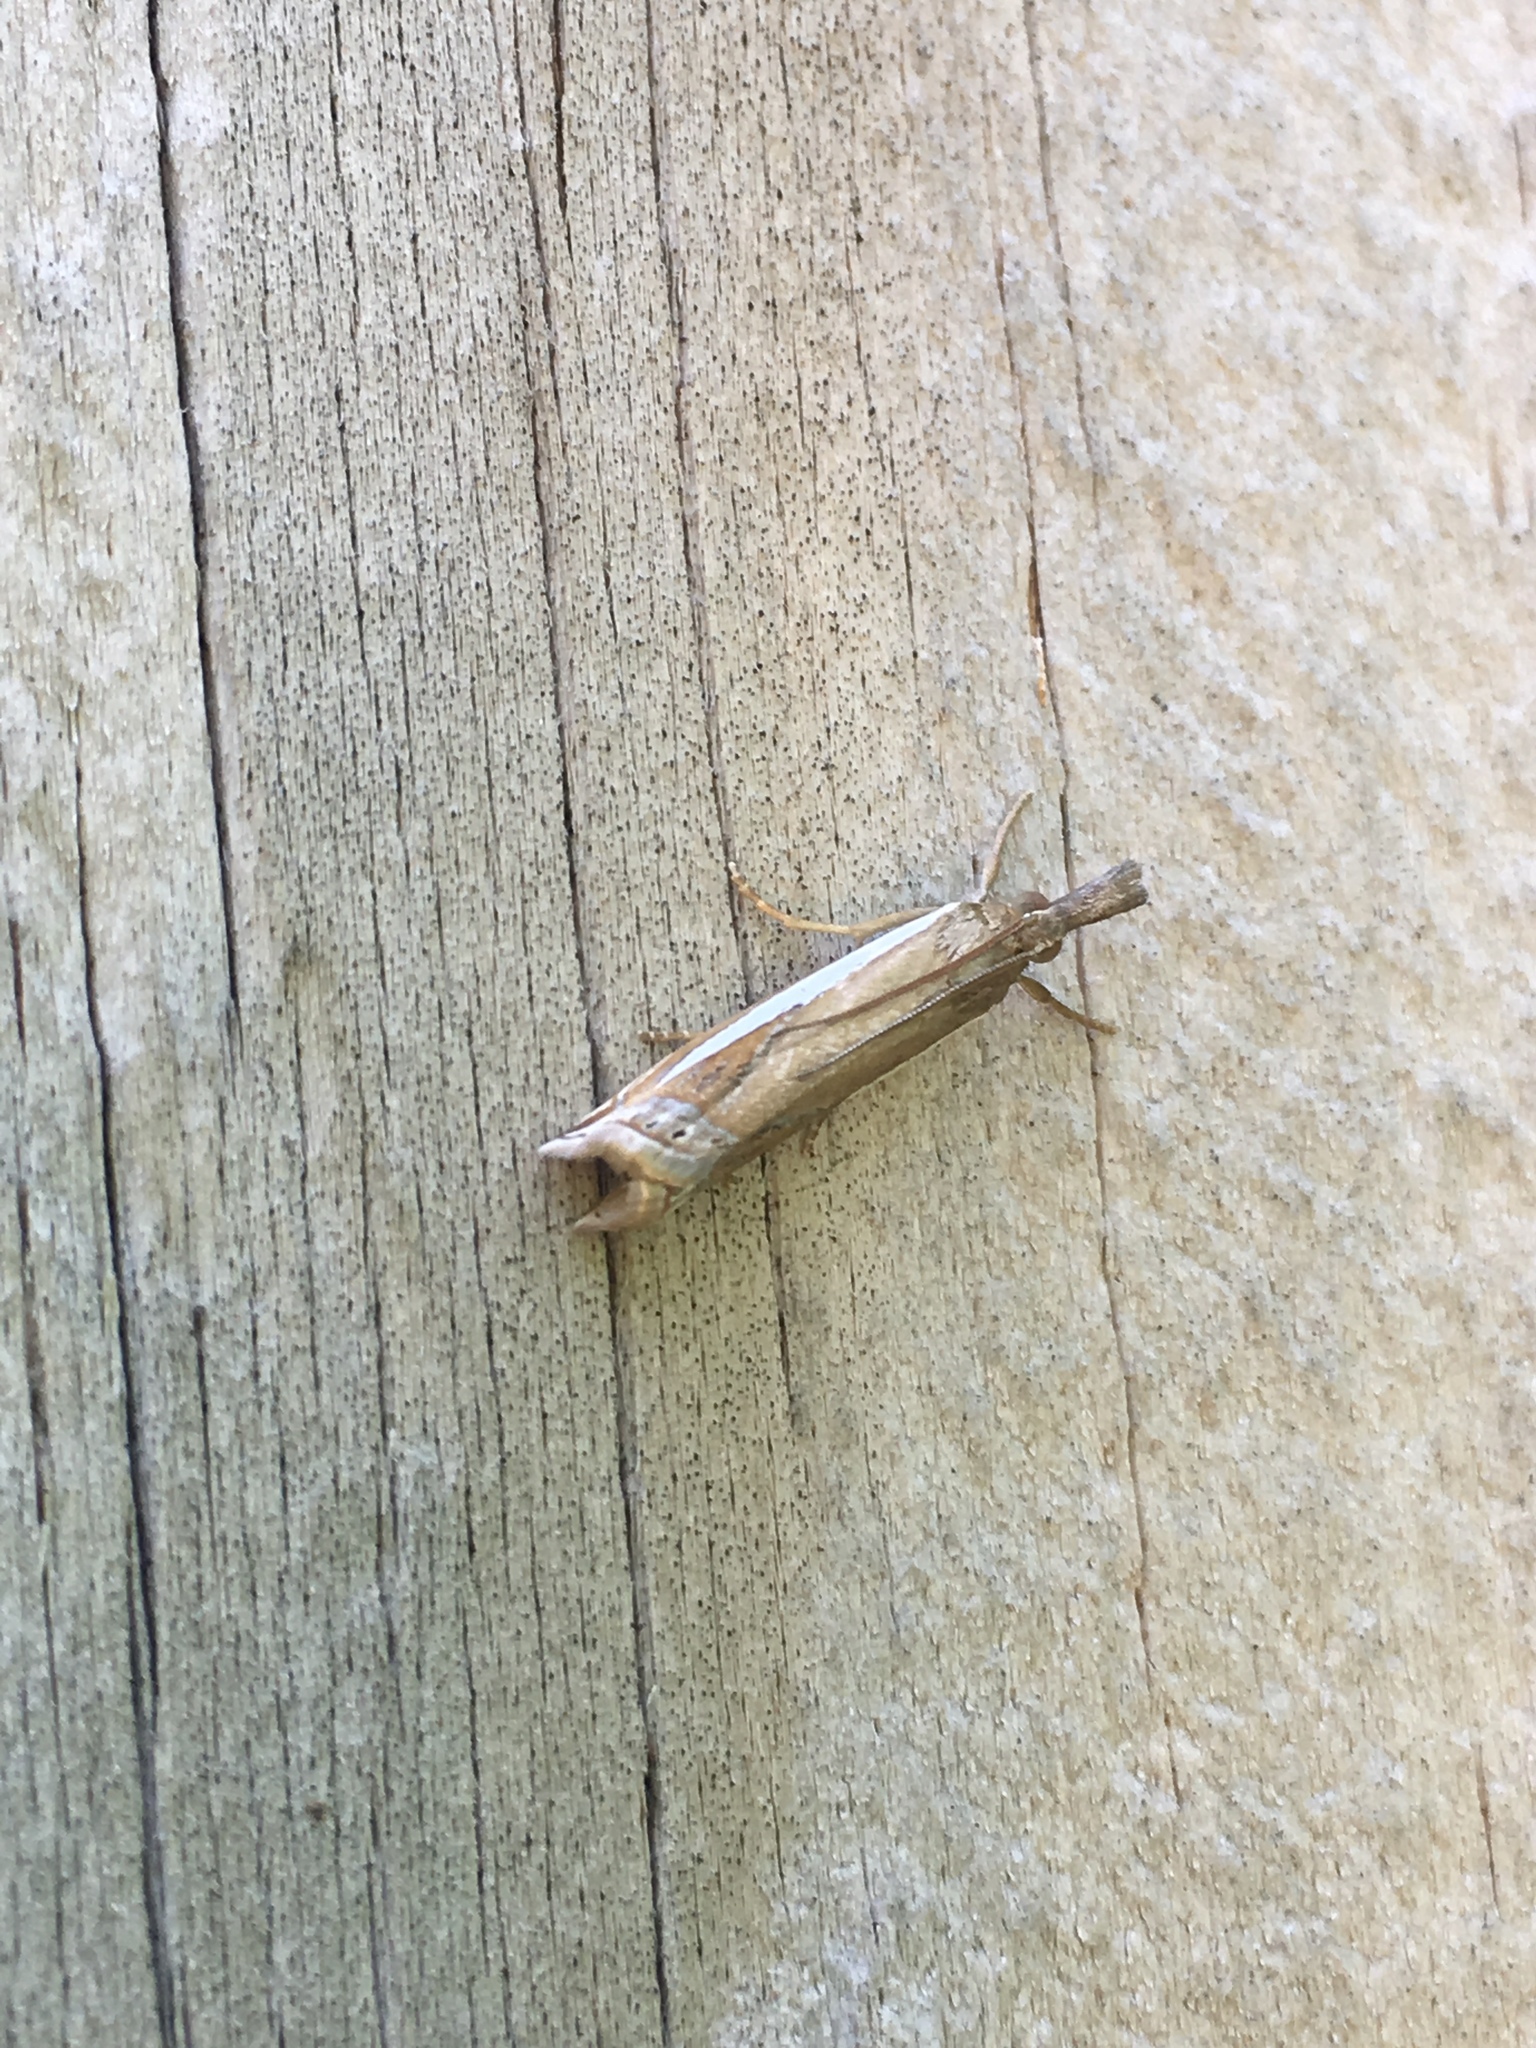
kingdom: Animalia
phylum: Arthropoda
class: Insecta
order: Lepidoptera
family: Crambidae
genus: Crambus
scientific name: Crambus praefectellus
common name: Common grass-veneer
